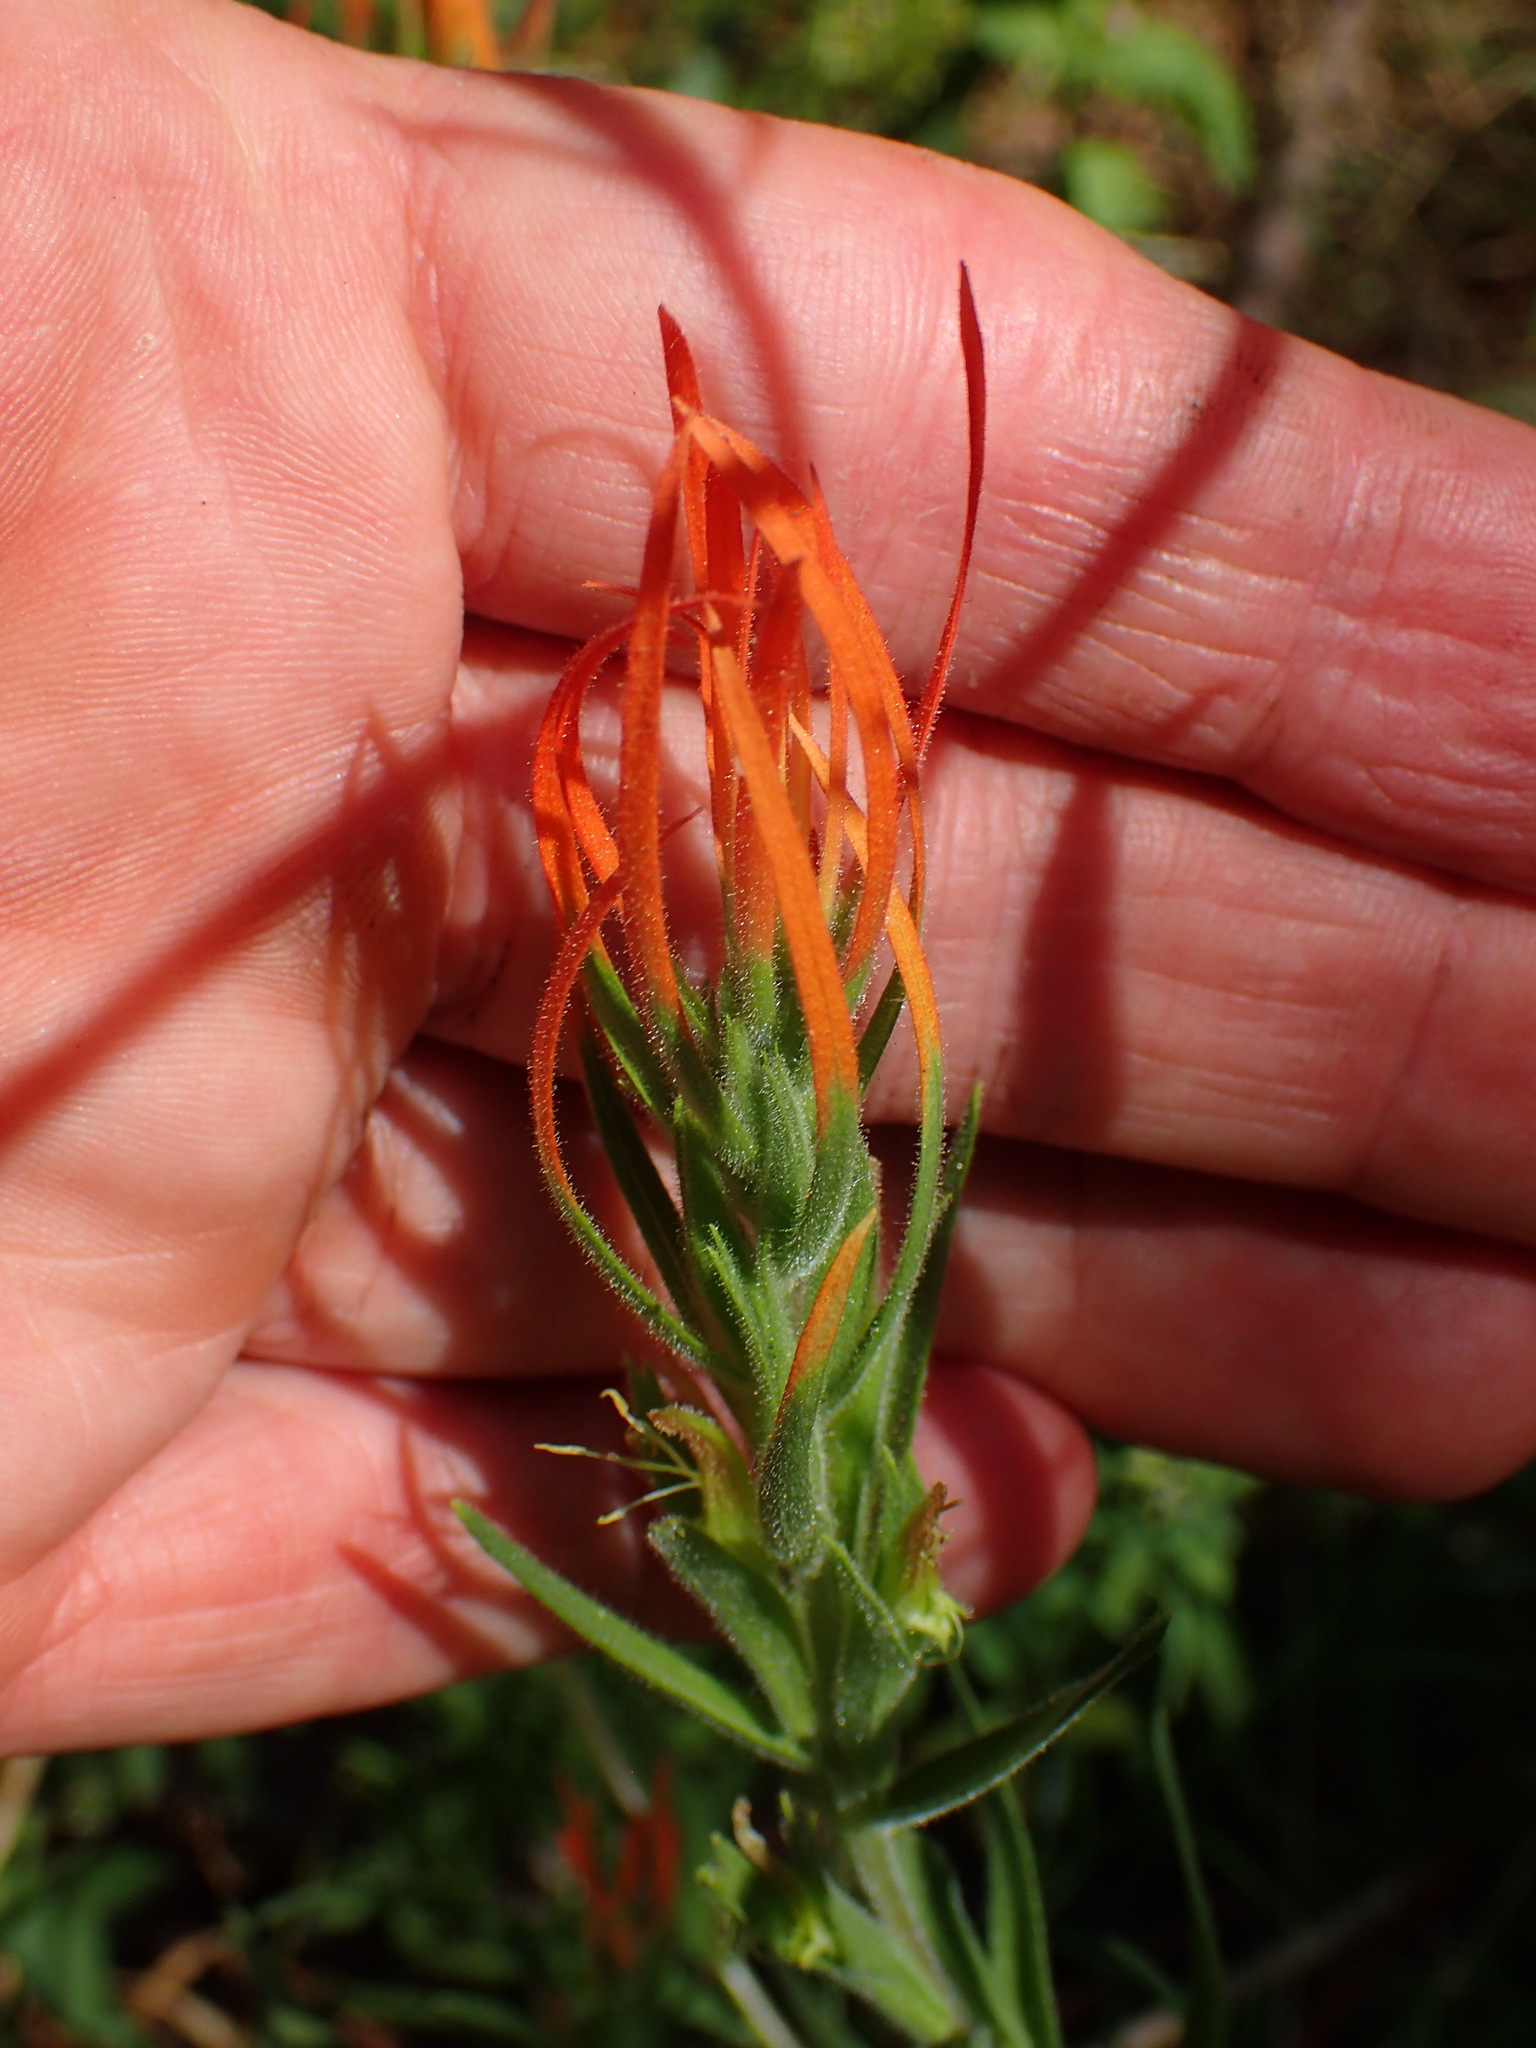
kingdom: Plantae
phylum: Tracheophyta
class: Magnoliopsida
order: Lamiales
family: Orobanchaceae
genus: Castilleja
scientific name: Castilleja minor
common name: Seep paintbrush
